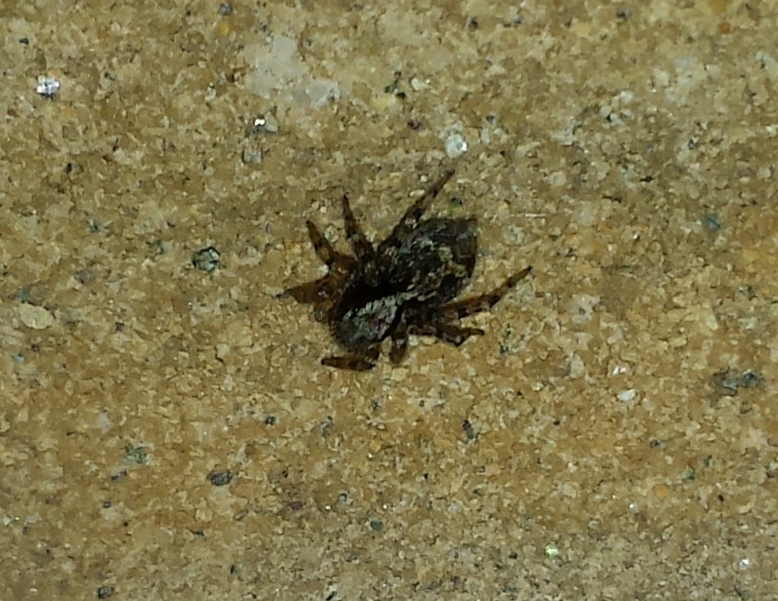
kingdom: Animalia
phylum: Arthropoda
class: Arachnida
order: Araneae
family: Salticidae
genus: Naphrys
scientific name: Naphrys pulex
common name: Flea jumping spider
